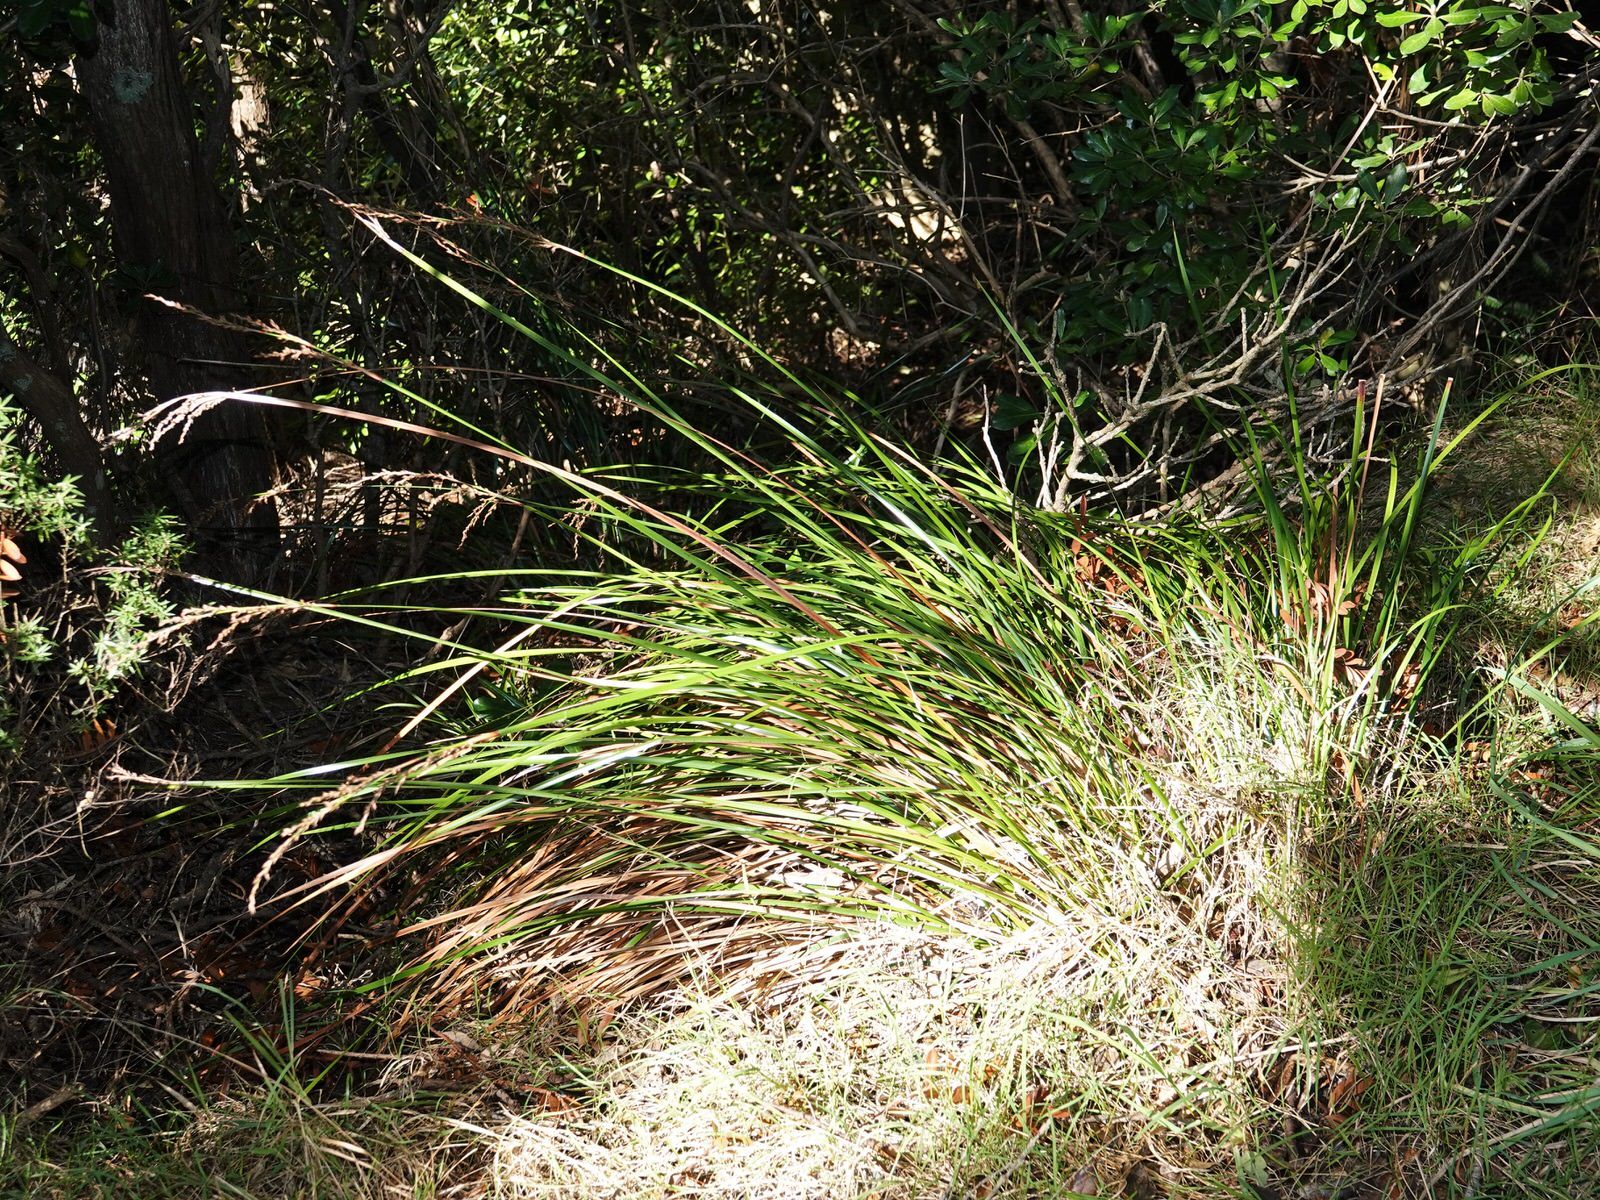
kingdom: Plantae
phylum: Tracheophyta
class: Liliopsida
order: Poales
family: Cyperaceae
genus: Lepidosperma
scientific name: Lepidosperma laterale
